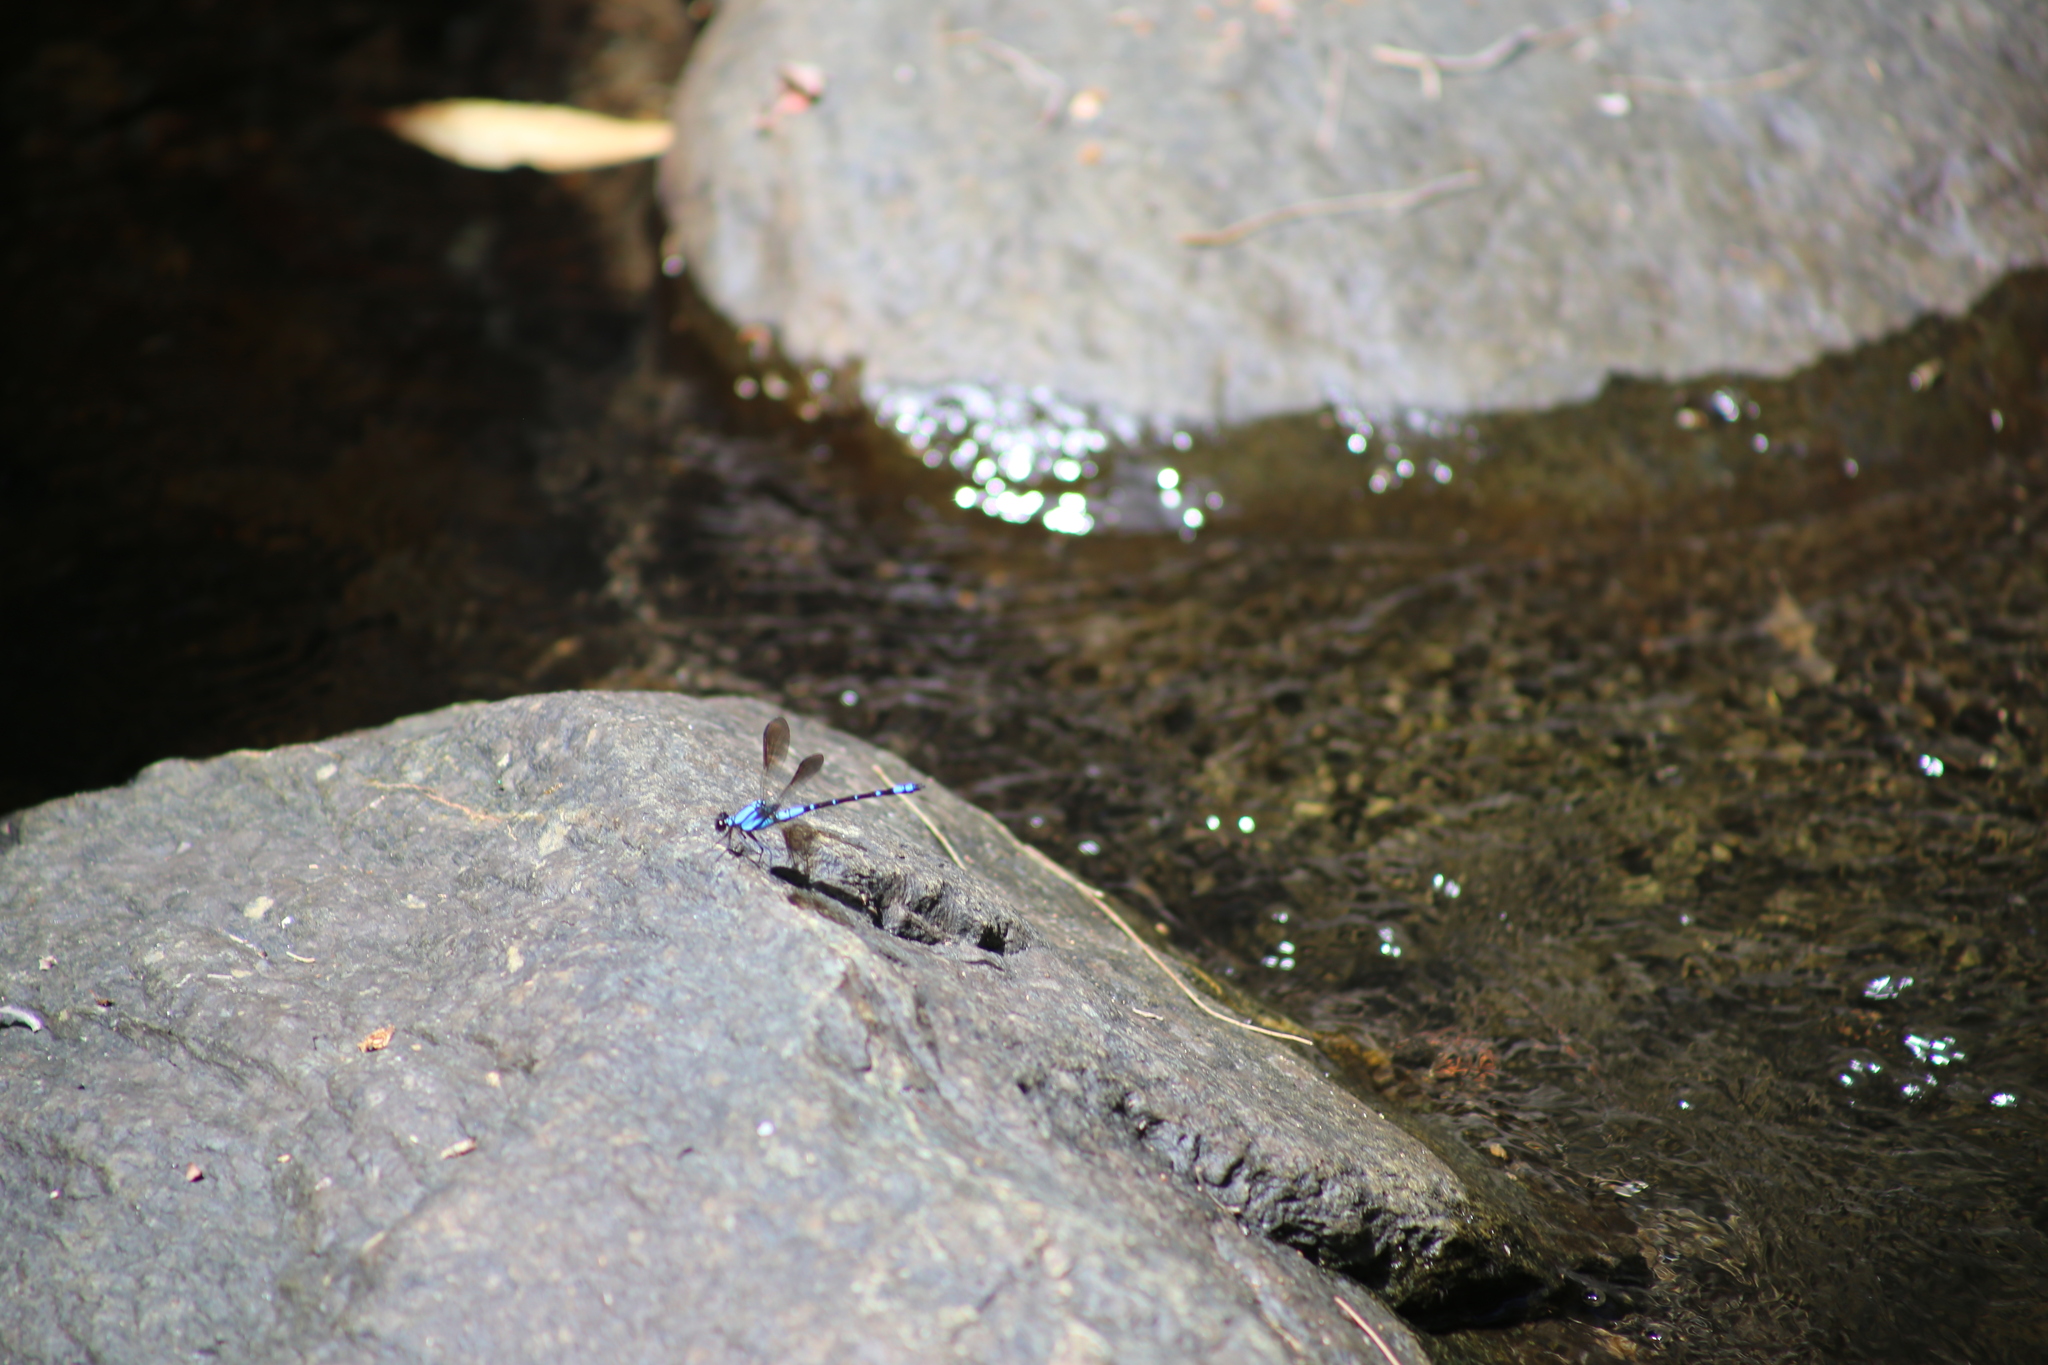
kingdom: Animalia
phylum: Arthropoda
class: Insecta
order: Odonata
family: Lestoideidae
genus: Diphlebia
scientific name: Diphlebia coerulescens
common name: Sapphire rockmaster
